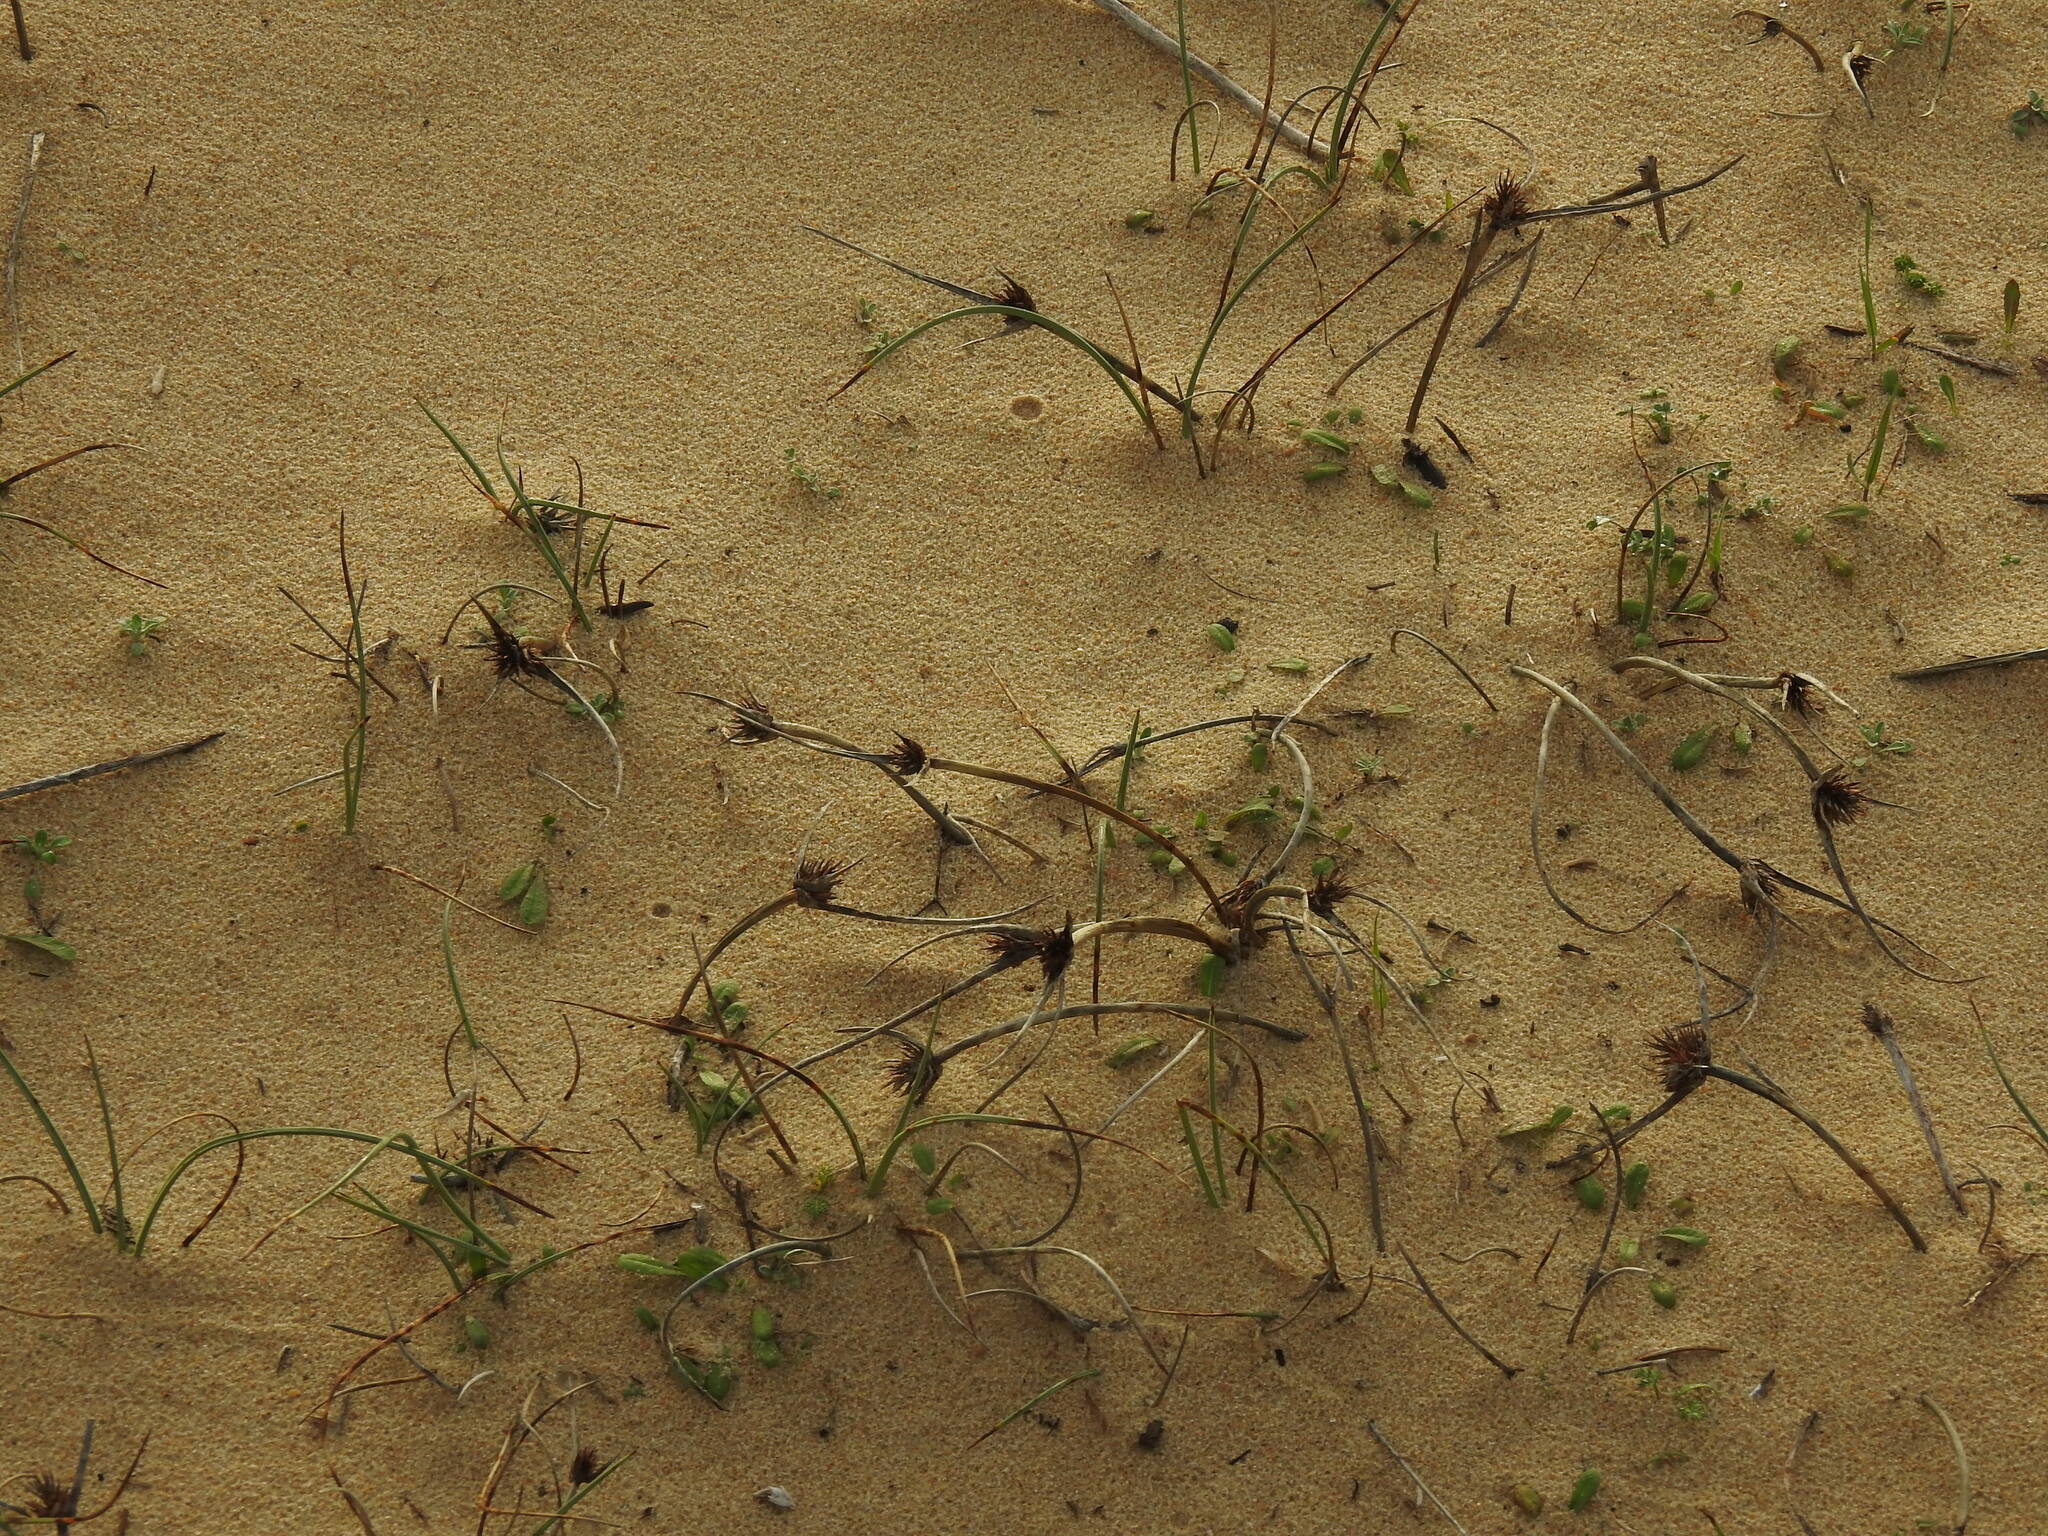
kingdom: Plantae
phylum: Tracheophyta
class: Liliopsida
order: Poales
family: Cyperaceae
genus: Cyperus
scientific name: Cyperus capitatus
